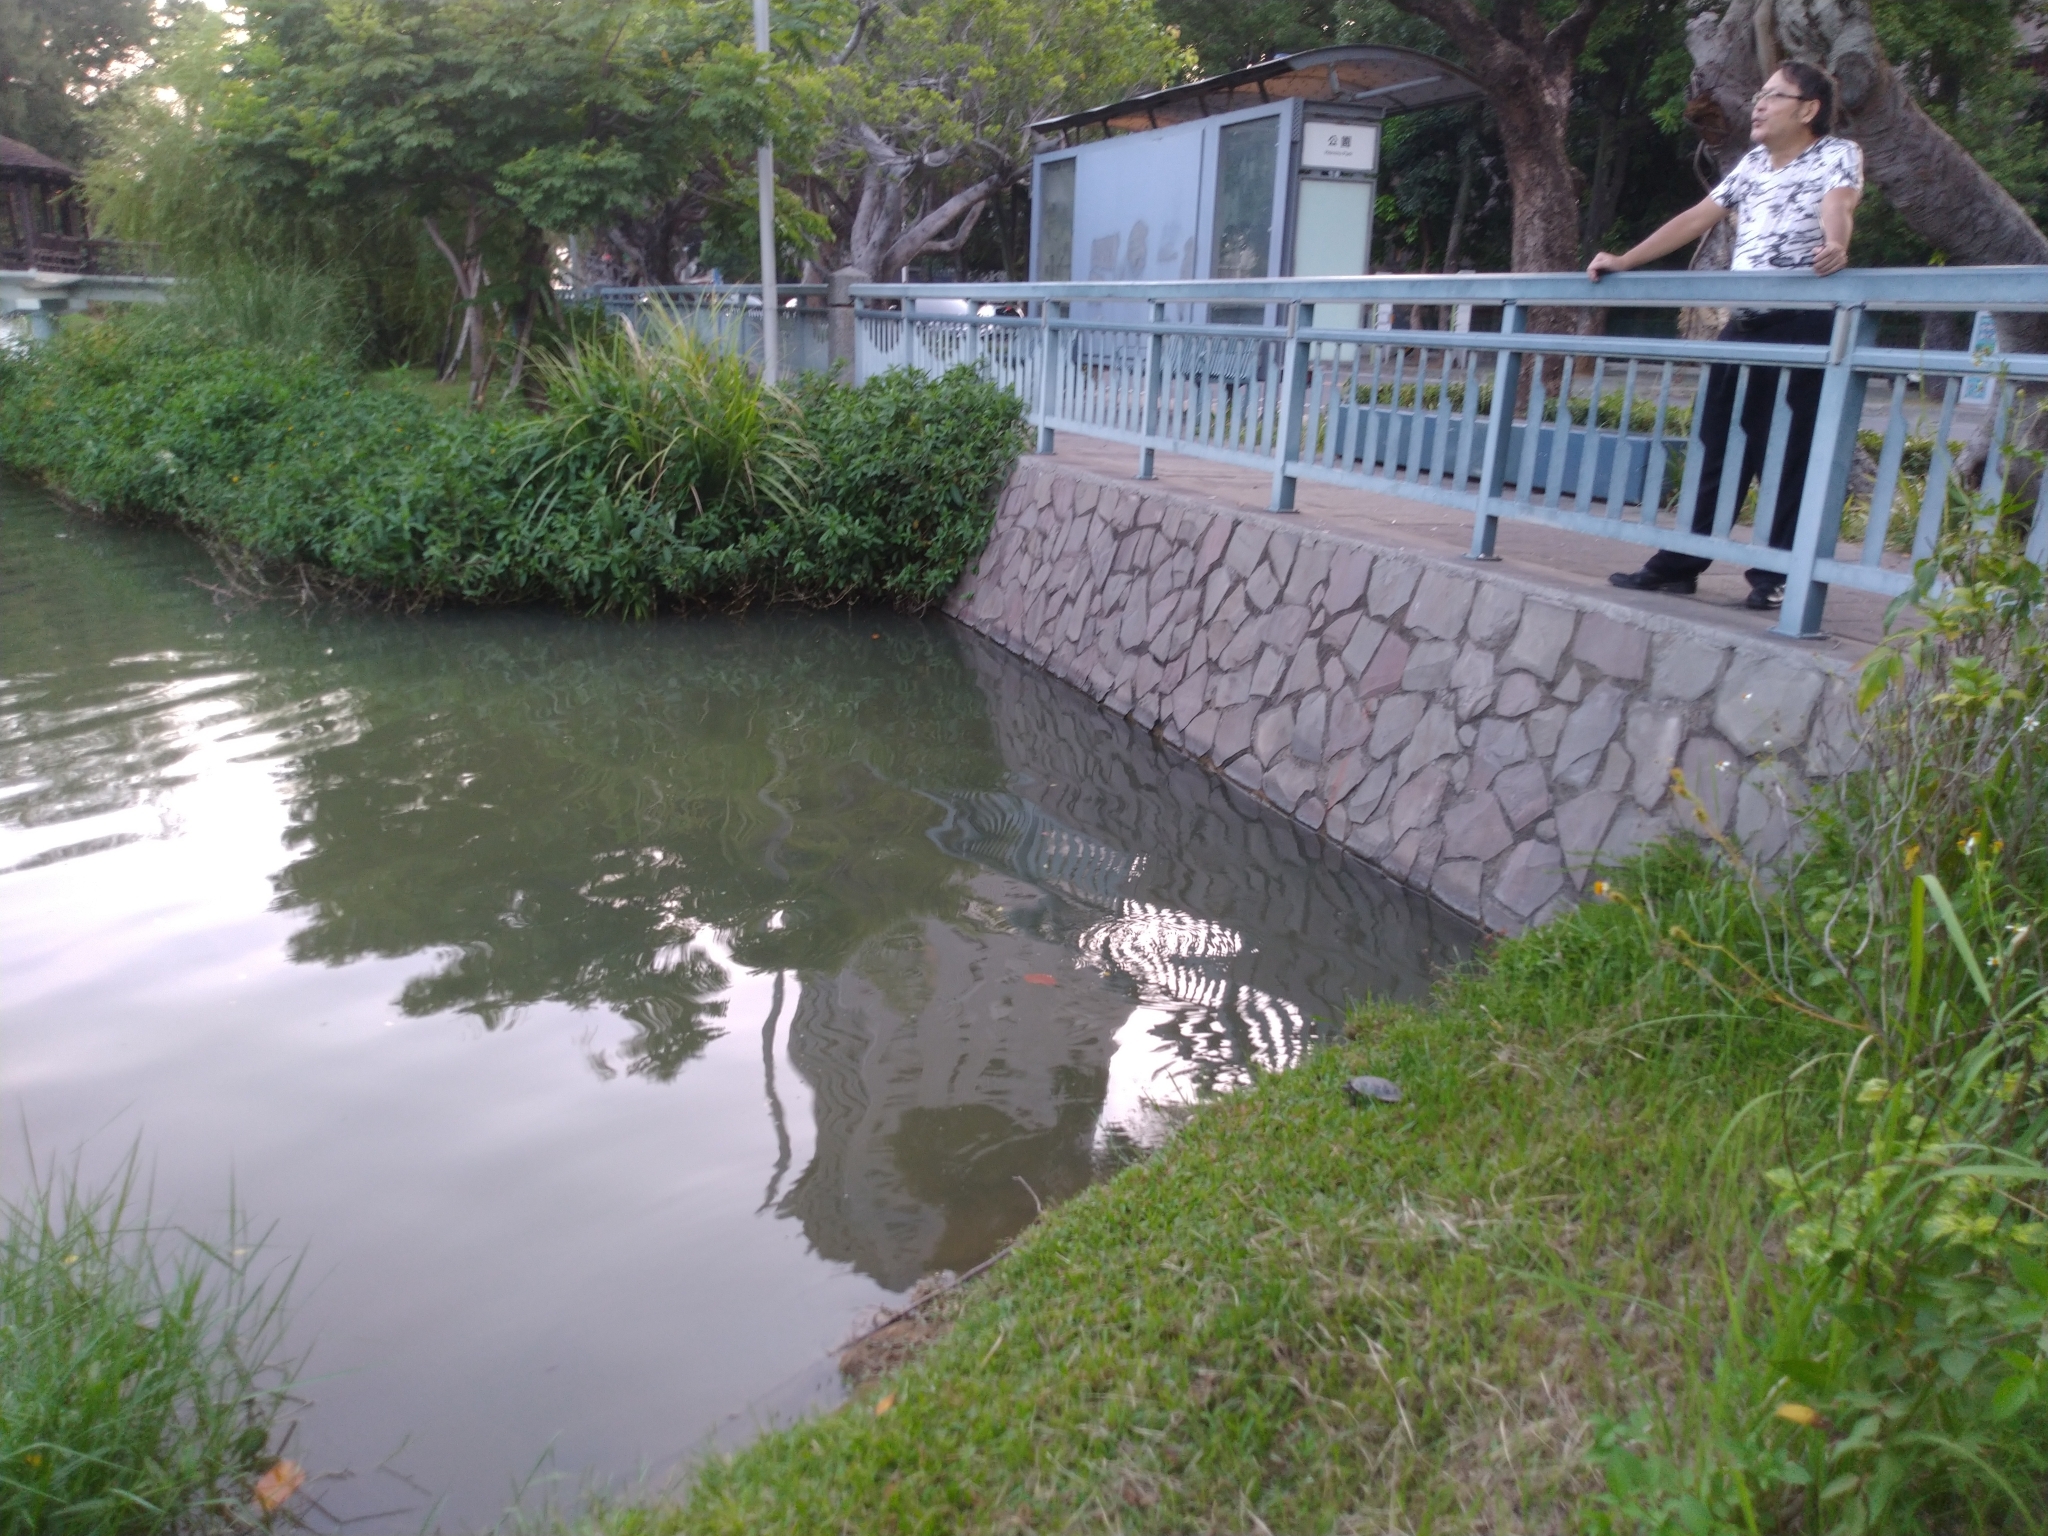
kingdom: Animalia
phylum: Chordata
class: Testudines
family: Geoemydidae
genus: Mauremys
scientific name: Mauremys sinensis
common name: Chinese stripe-necked turtle
